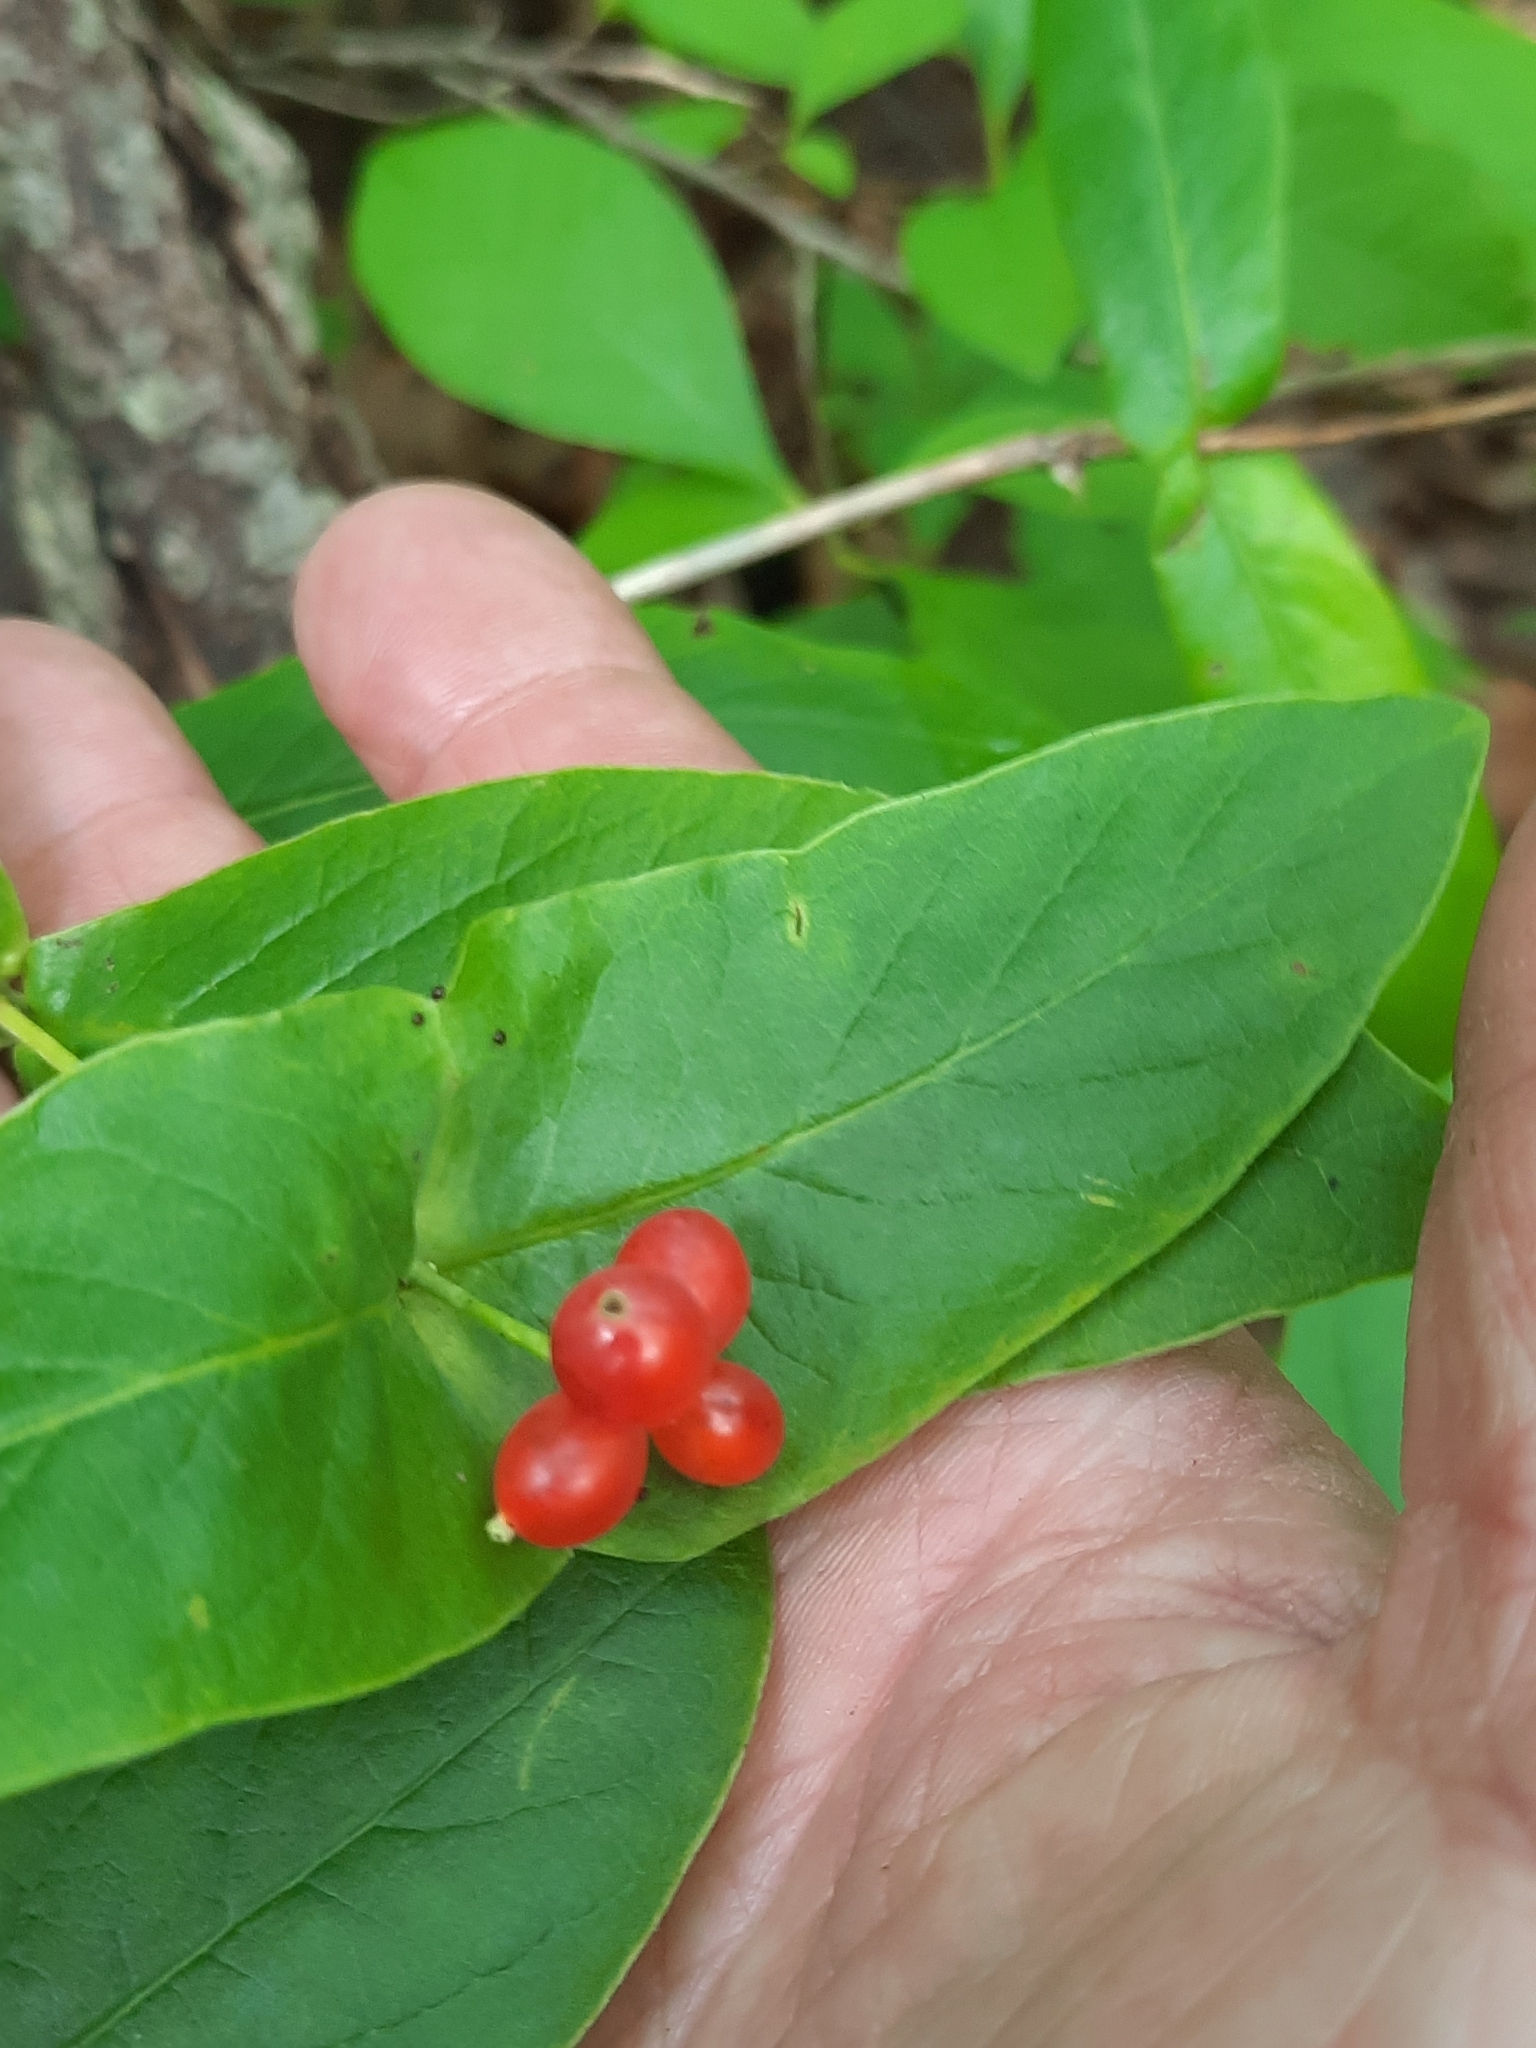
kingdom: Plantae
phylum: Tracheophyta
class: Magnoliopsida
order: Dipsacales
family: Caprifoliaceae
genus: Lonicera
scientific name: Lonicera dioica
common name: Limber honeysuckle
